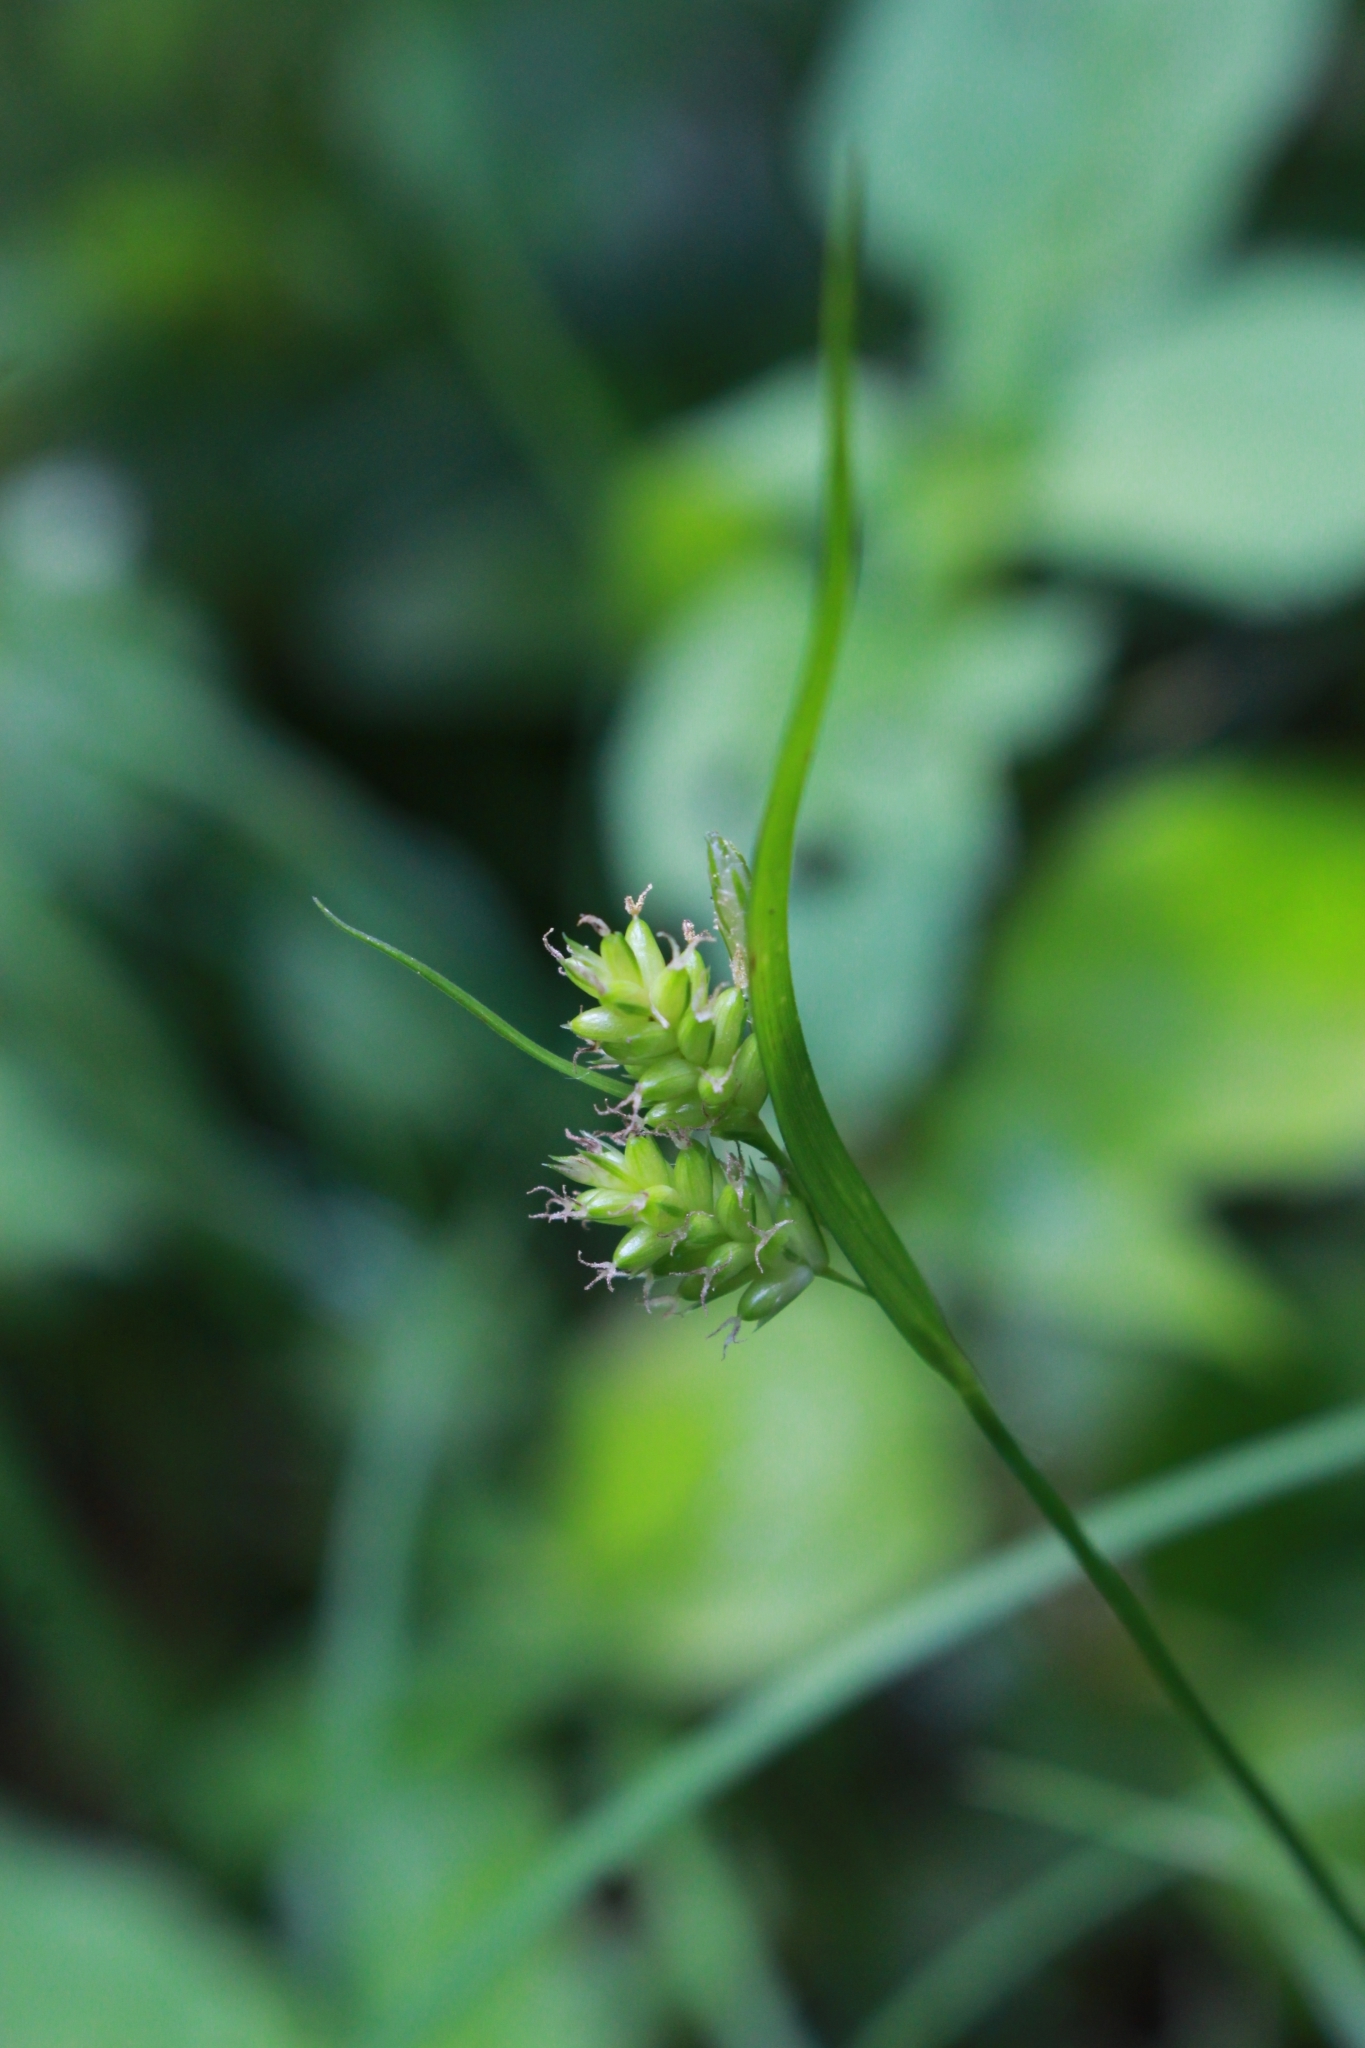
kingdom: Plantae
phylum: Tracheophyta
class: Liliopsida
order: Poales
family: Cyperaceae
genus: Carex
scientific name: Carex pallescens
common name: Pale sedge
